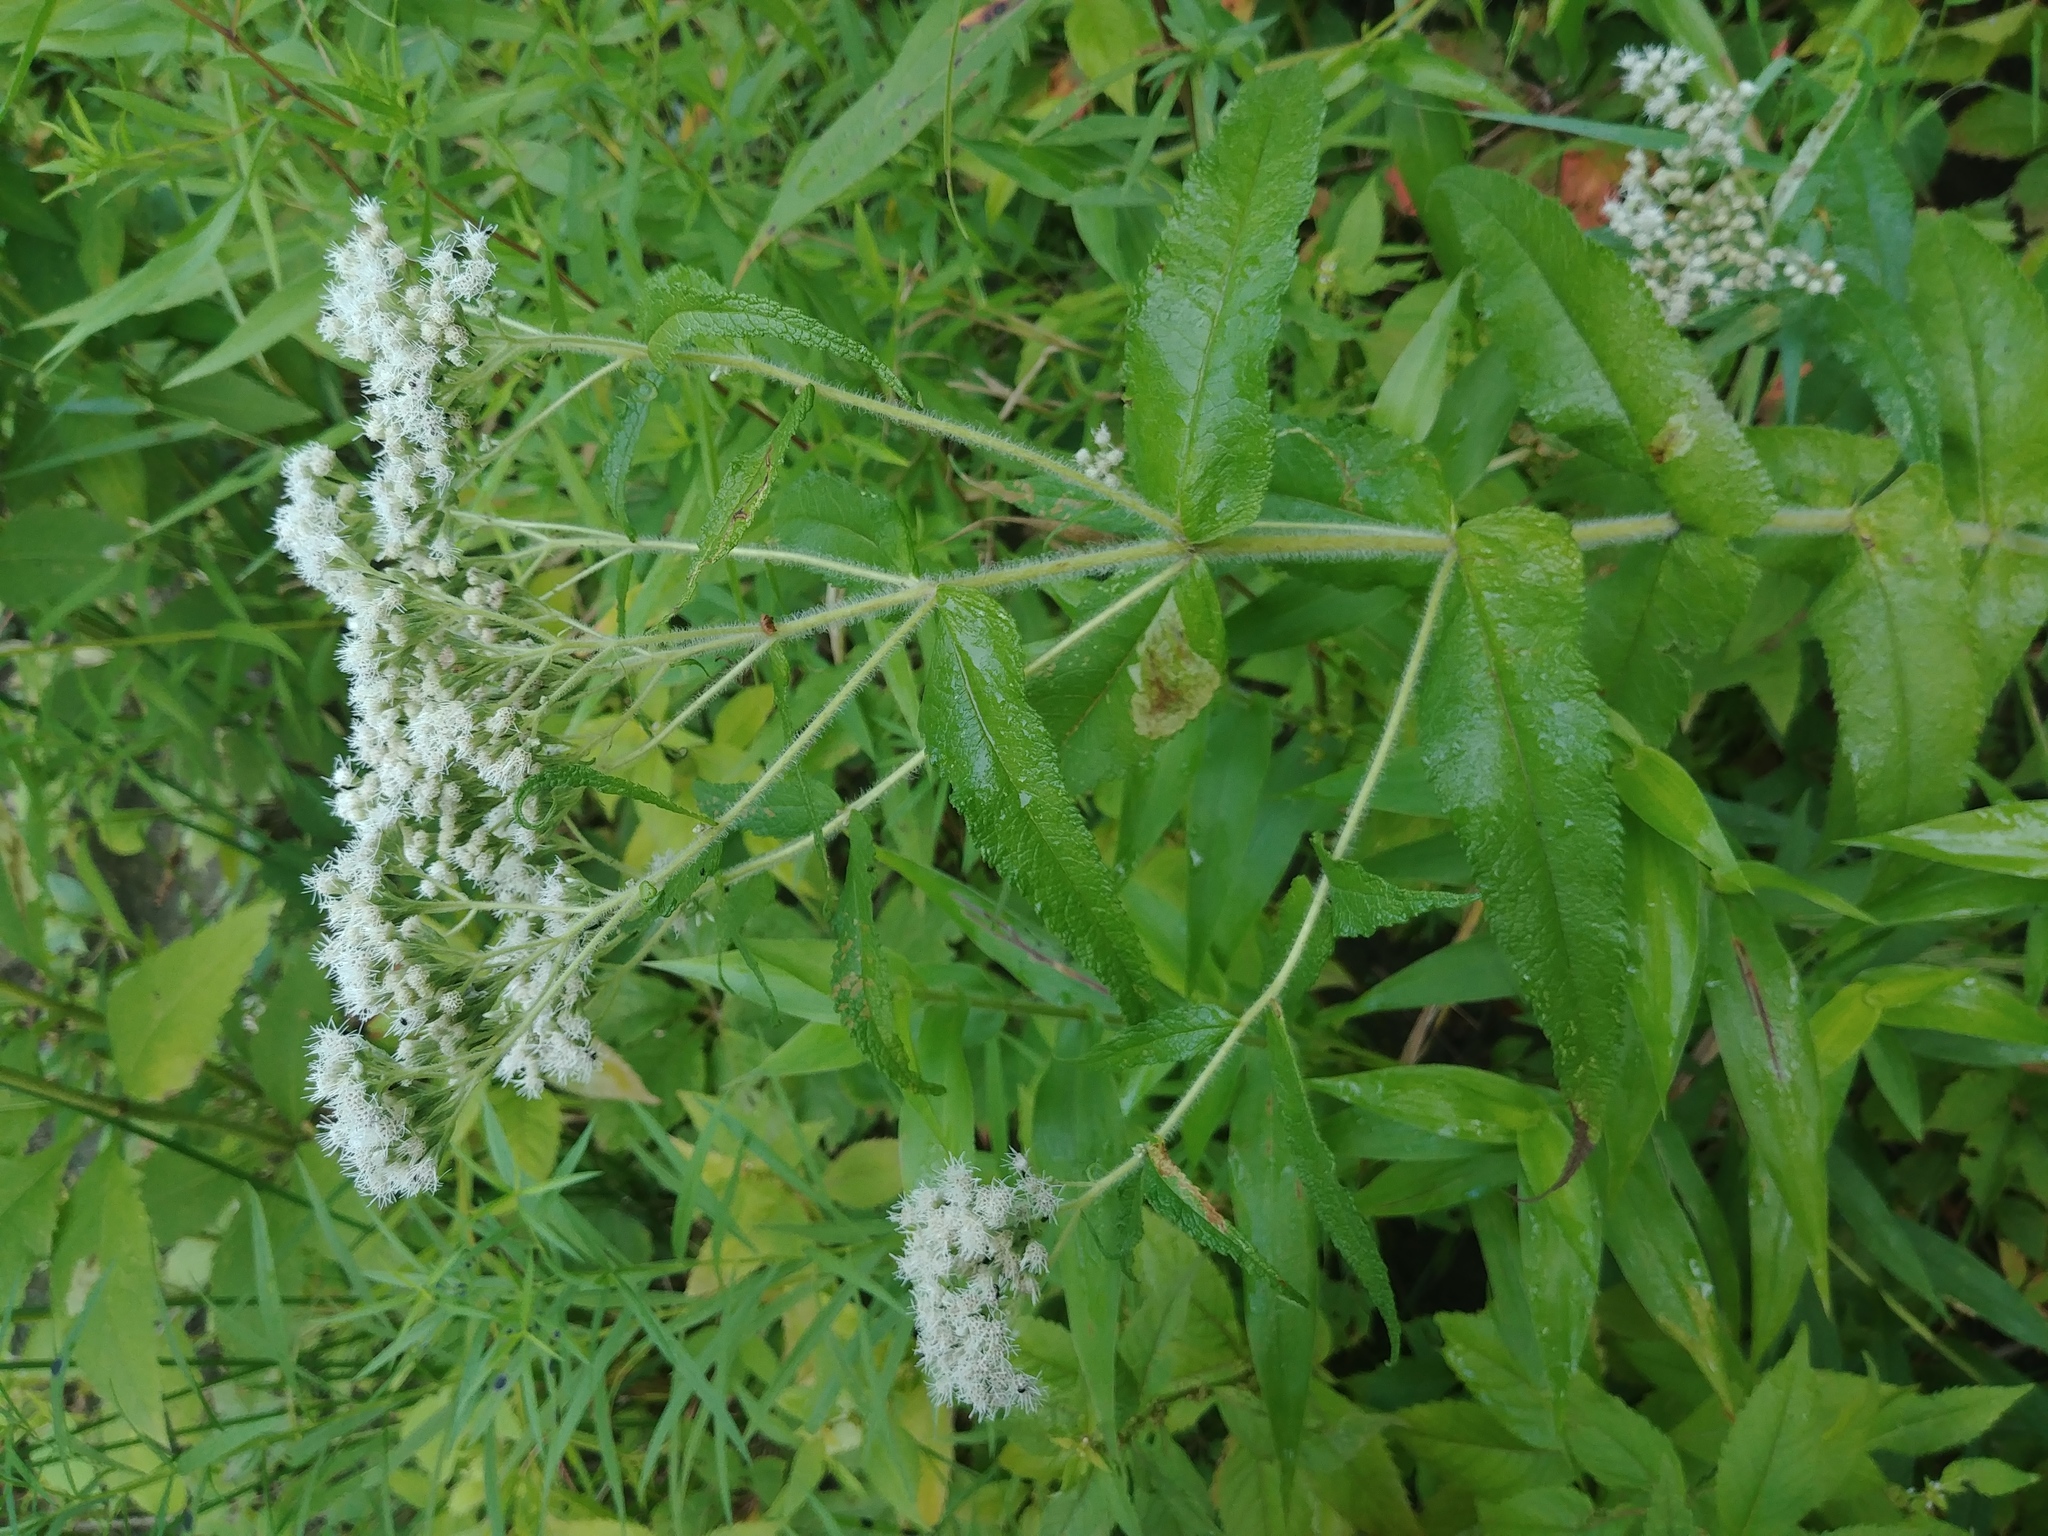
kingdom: Plantae
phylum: Tracheophyta
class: Magnoliopsida
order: Asterales
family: Asteraceae
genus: Eupatorium
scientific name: Eupatorium perfoliatum
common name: Boneset
